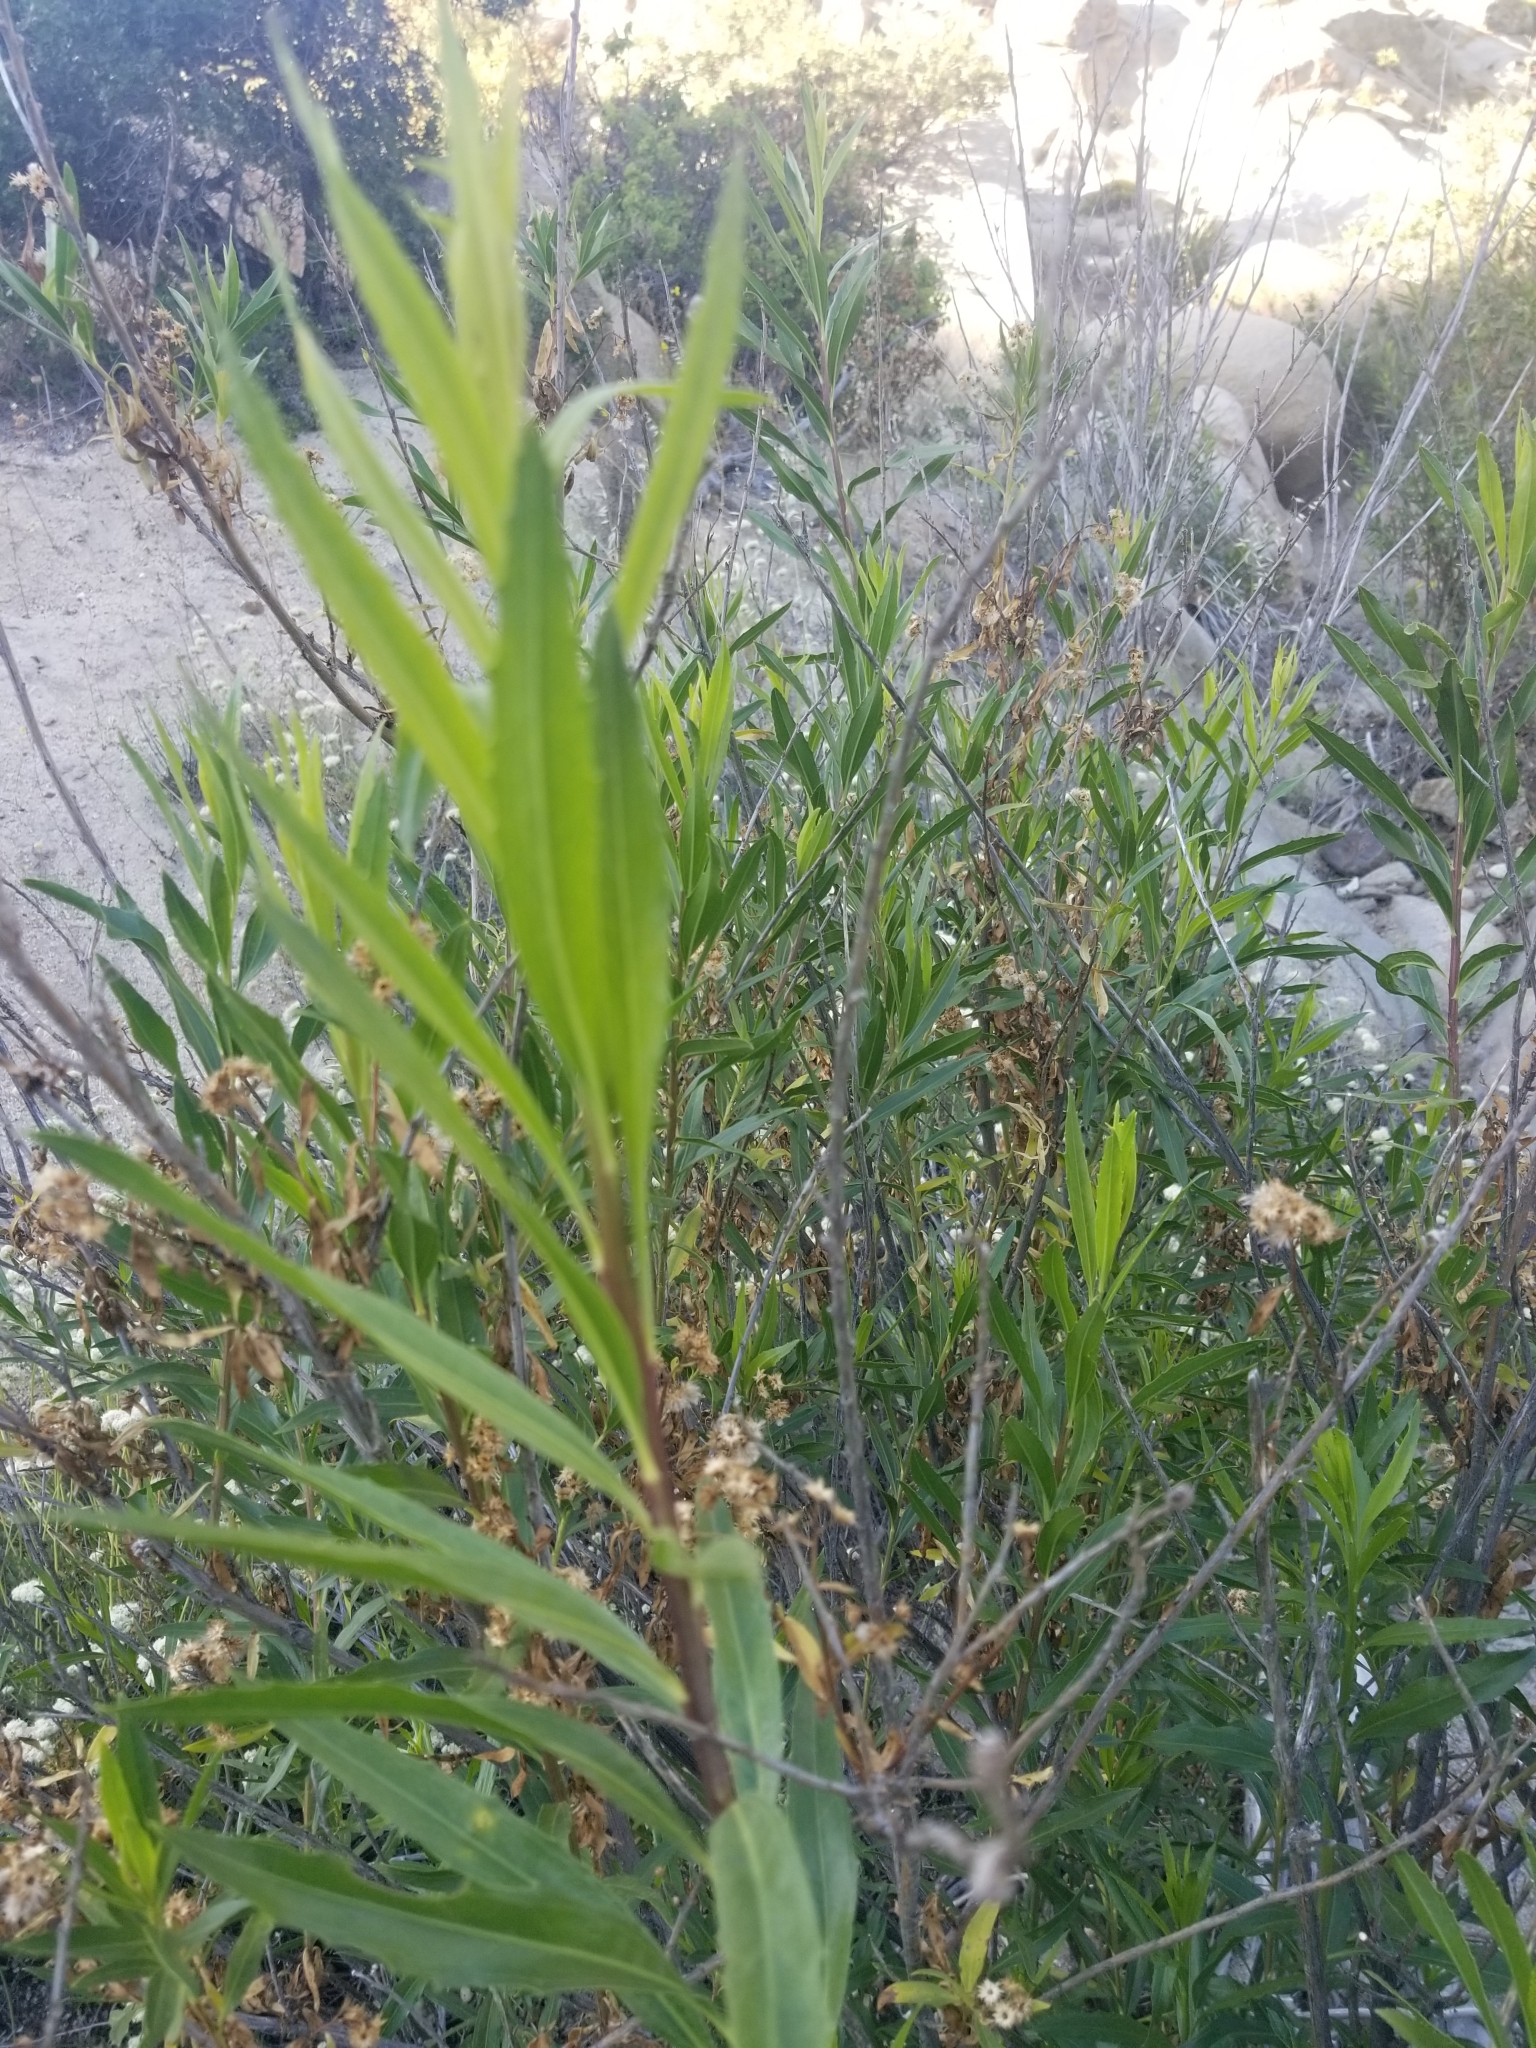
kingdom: Plantae
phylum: Tracheophyta
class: Magnoliopsida
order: Asterales
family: Asteraceae
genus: Baccharis
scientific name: Baccharis salicifolia
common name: Sticky baccharis
